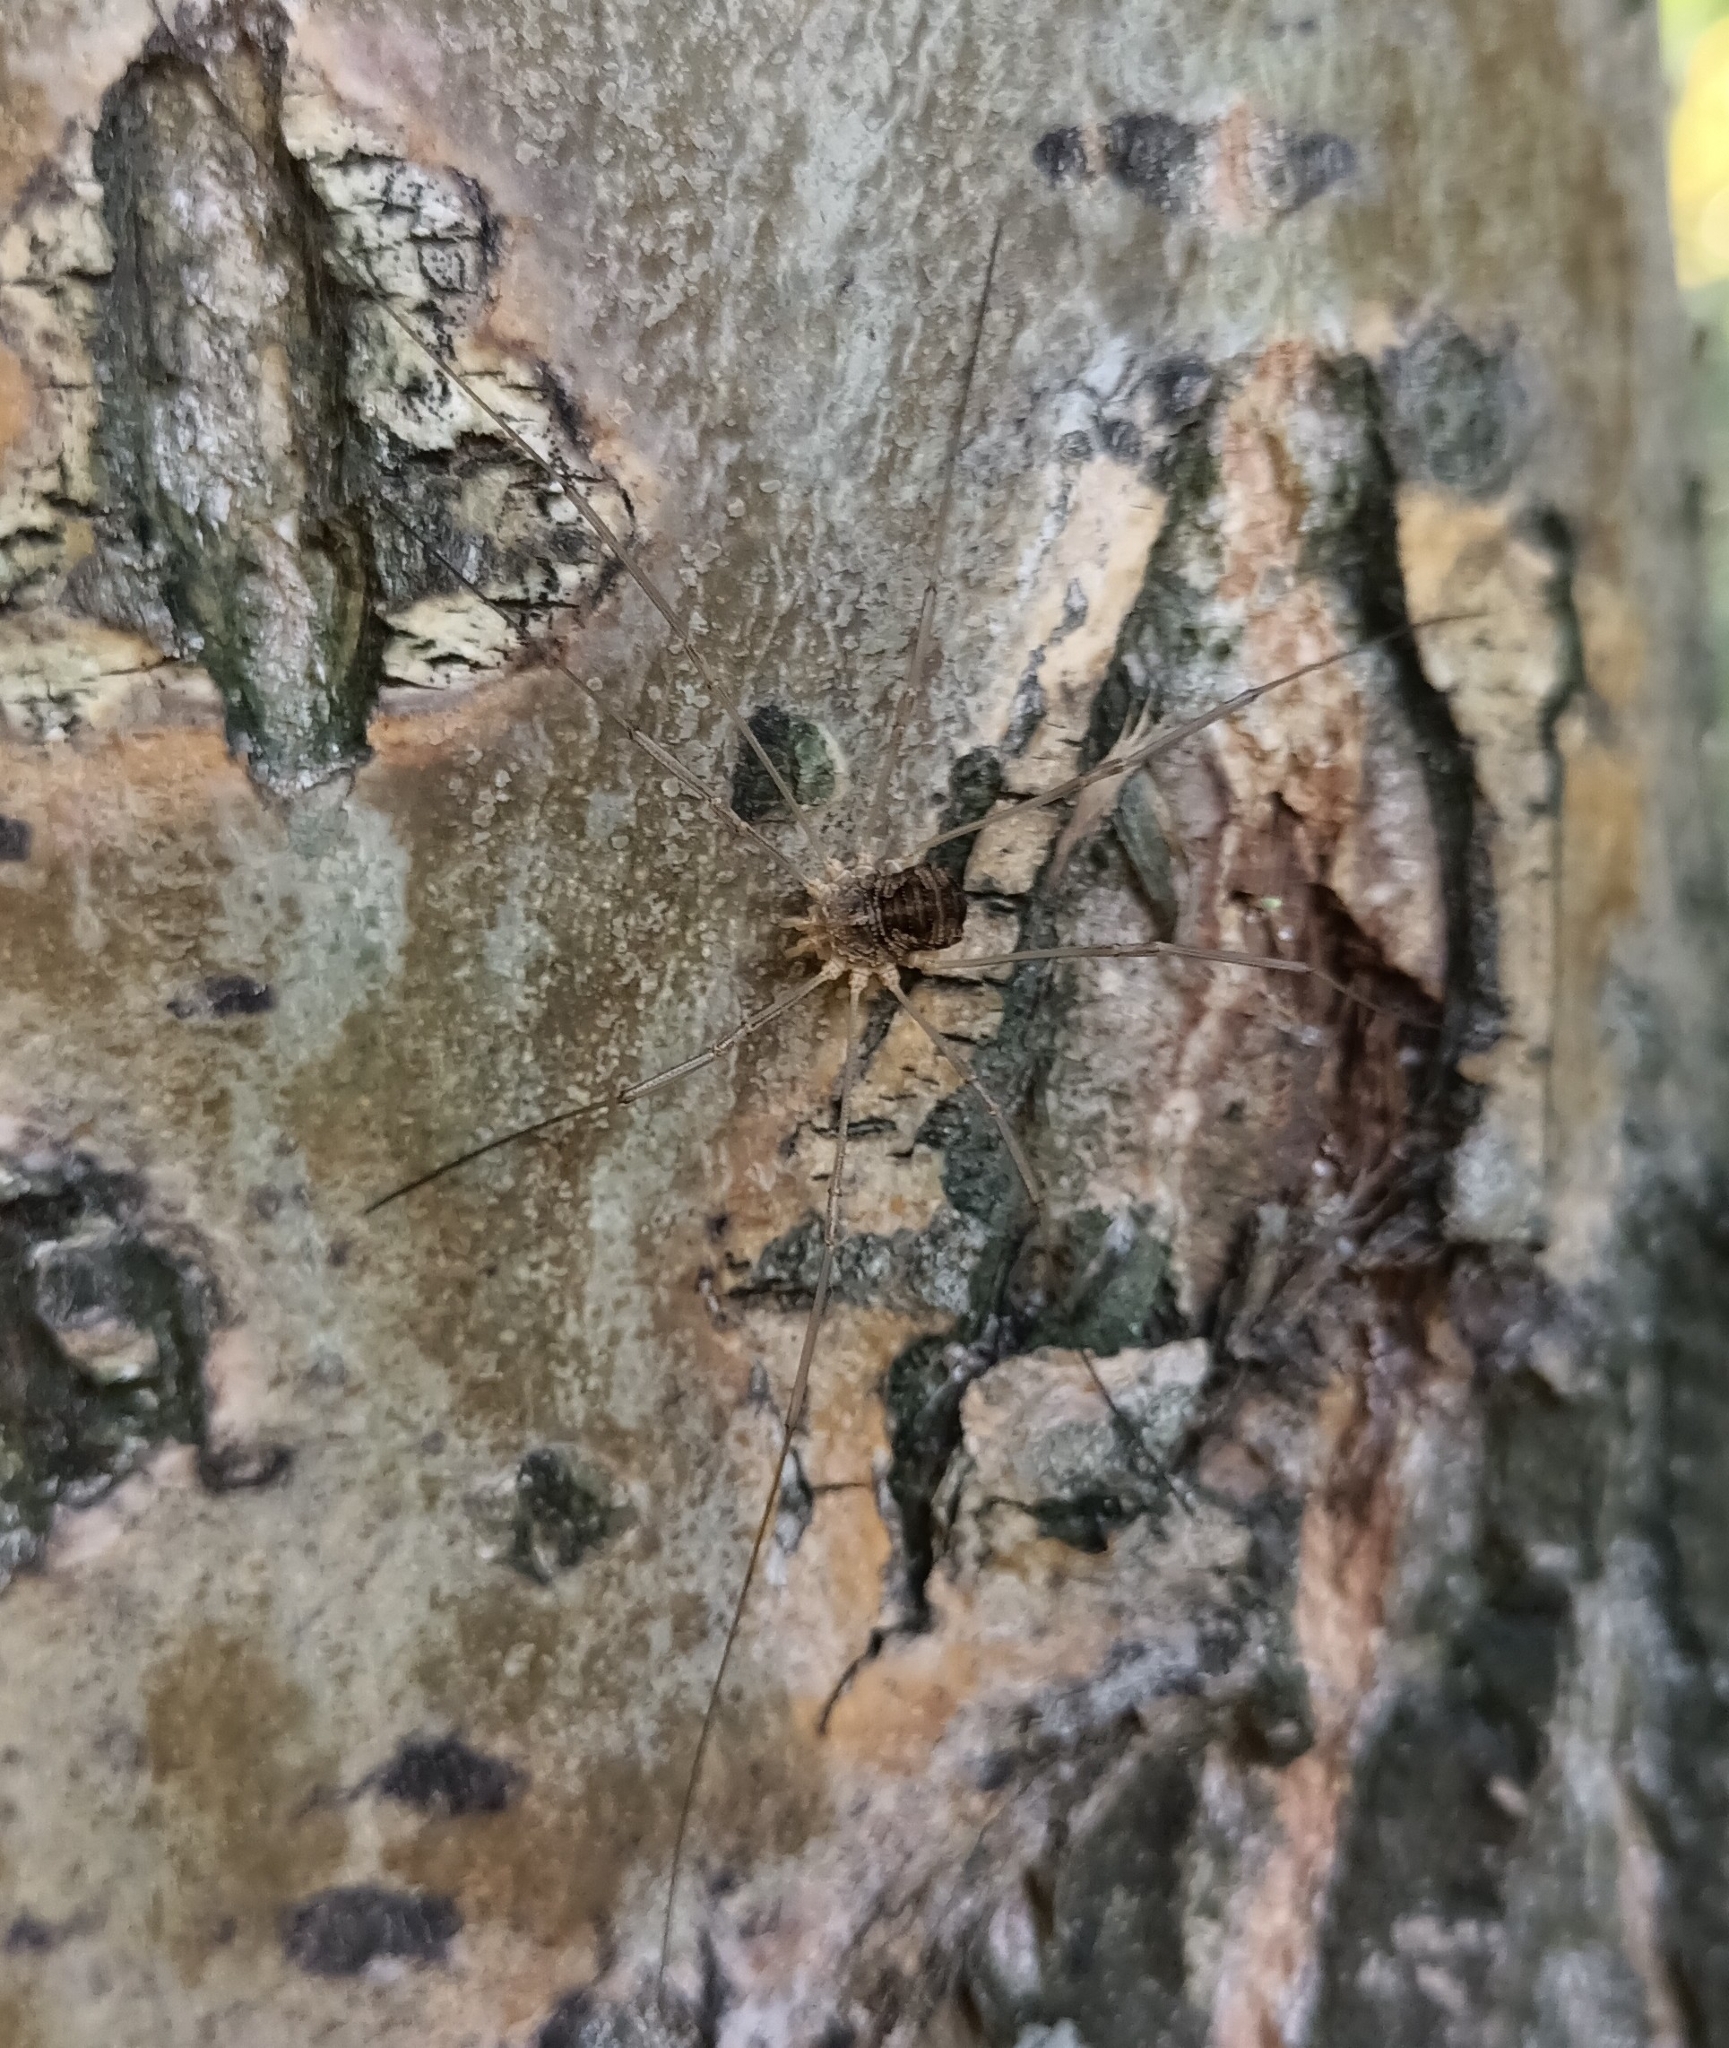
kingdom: Animalia
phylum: Arthropoda
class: Arachnida
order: Opiliones
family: Phalangiidae
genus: Phalangium
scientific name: Phalangium opilio
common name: Daddy longleg
